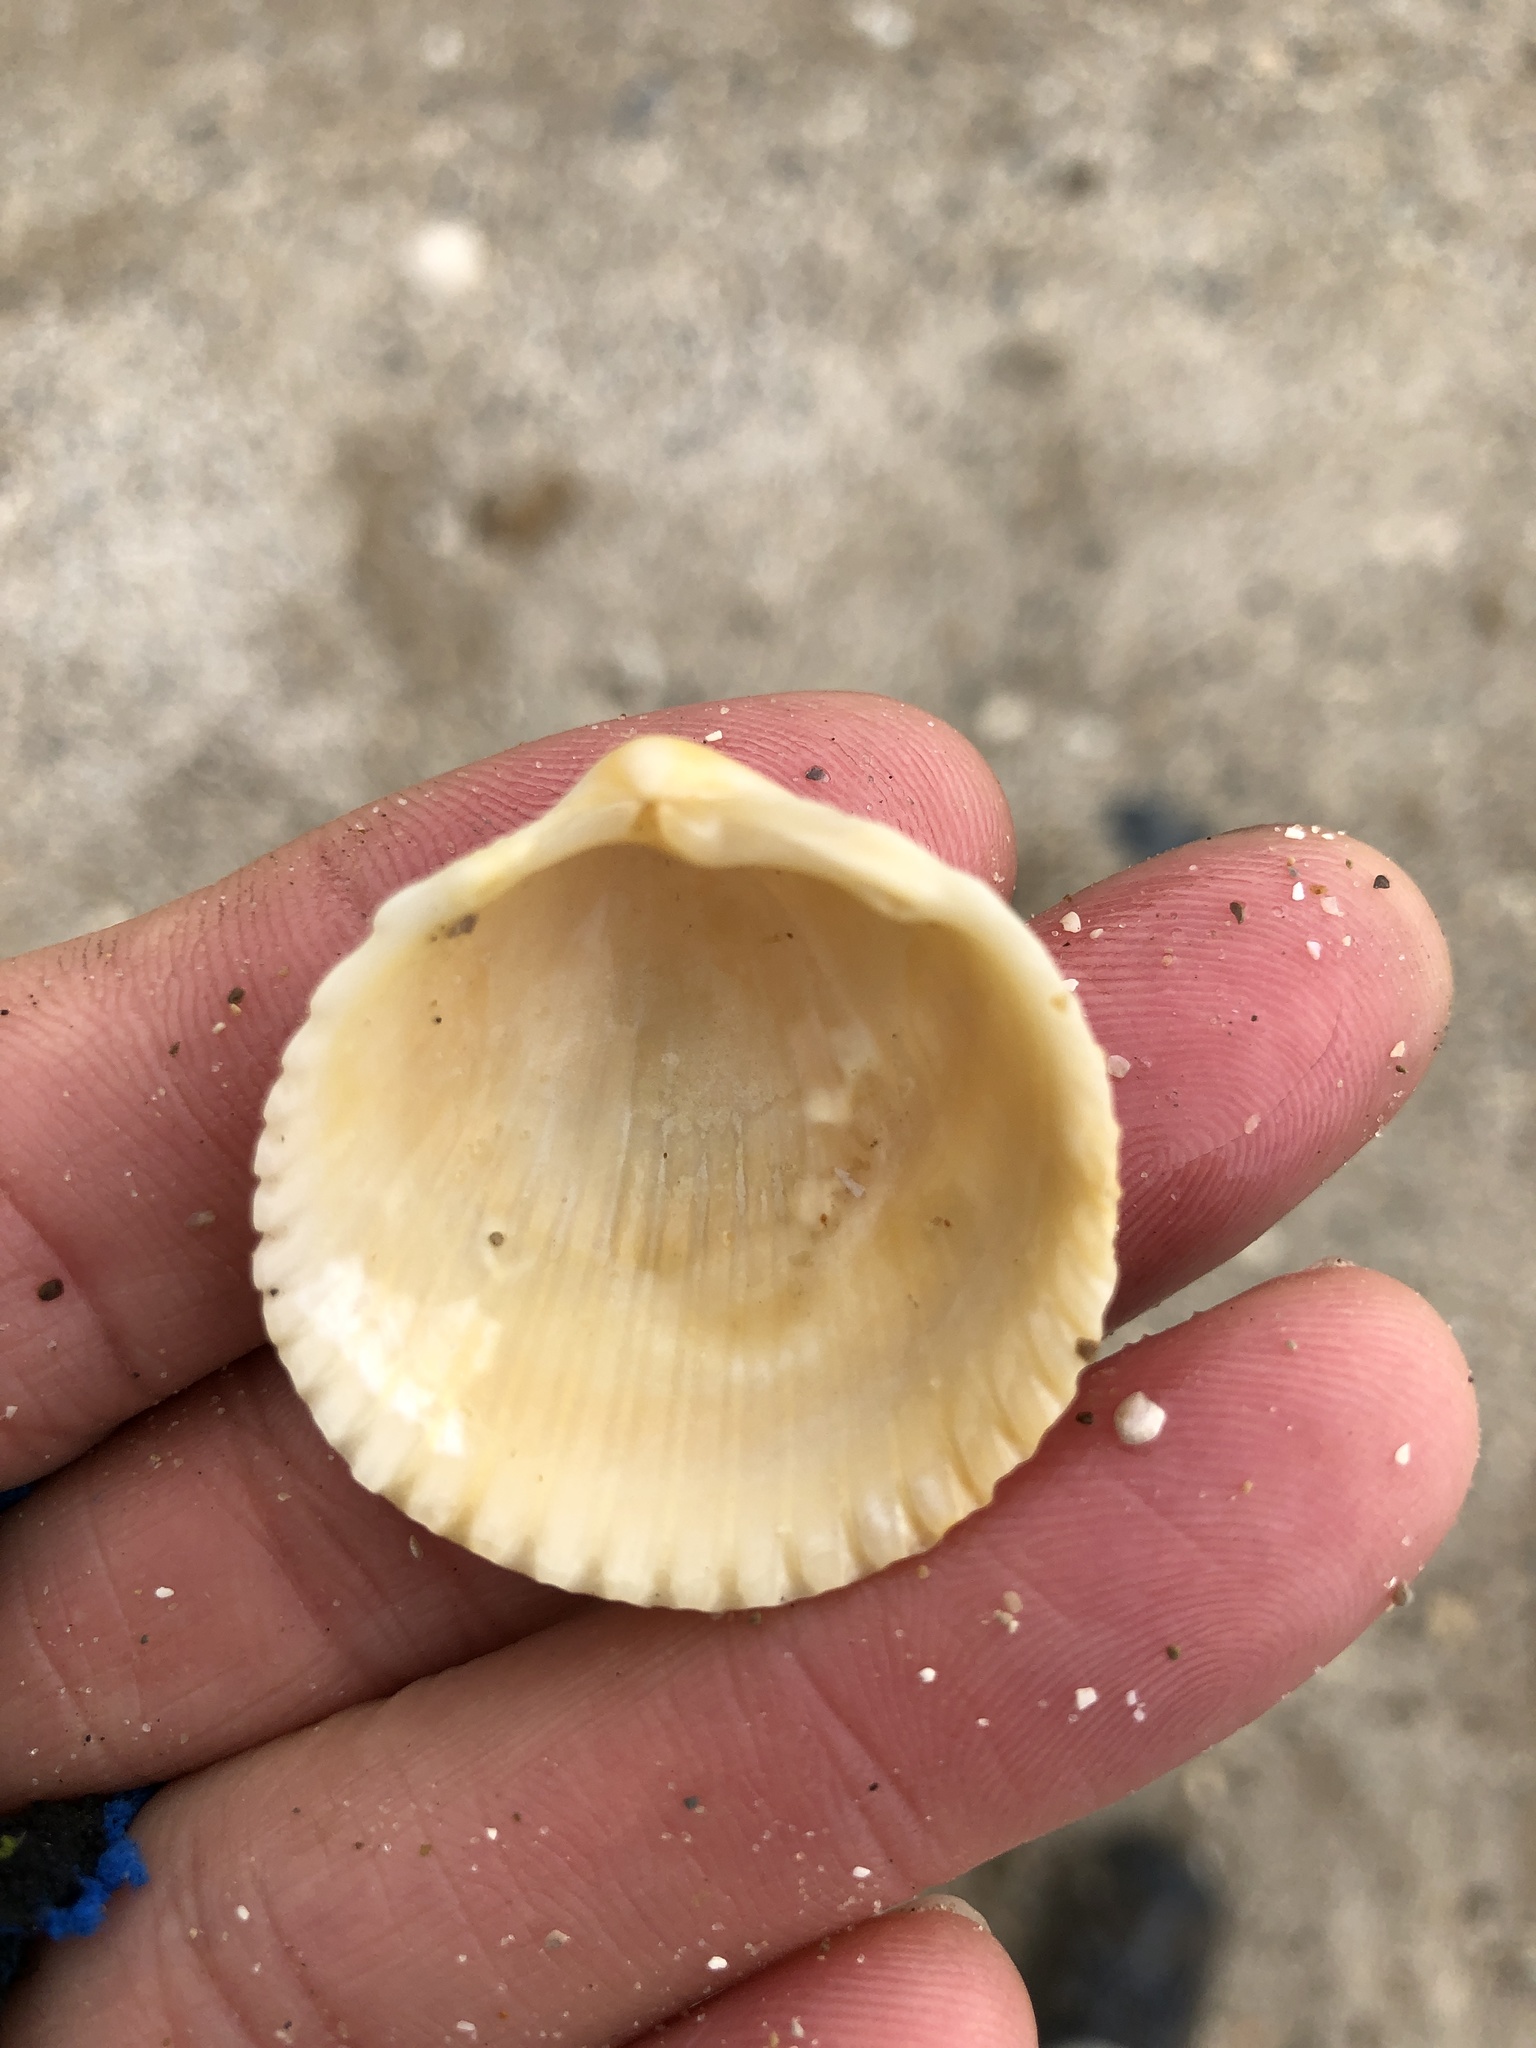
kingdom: Animalia
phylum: Mollusca
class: Bivalvia
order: Cardiida
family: Cardiidae
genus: Dallocardia
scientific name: Dallocardia muricata
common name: Yellow pricklycockle
